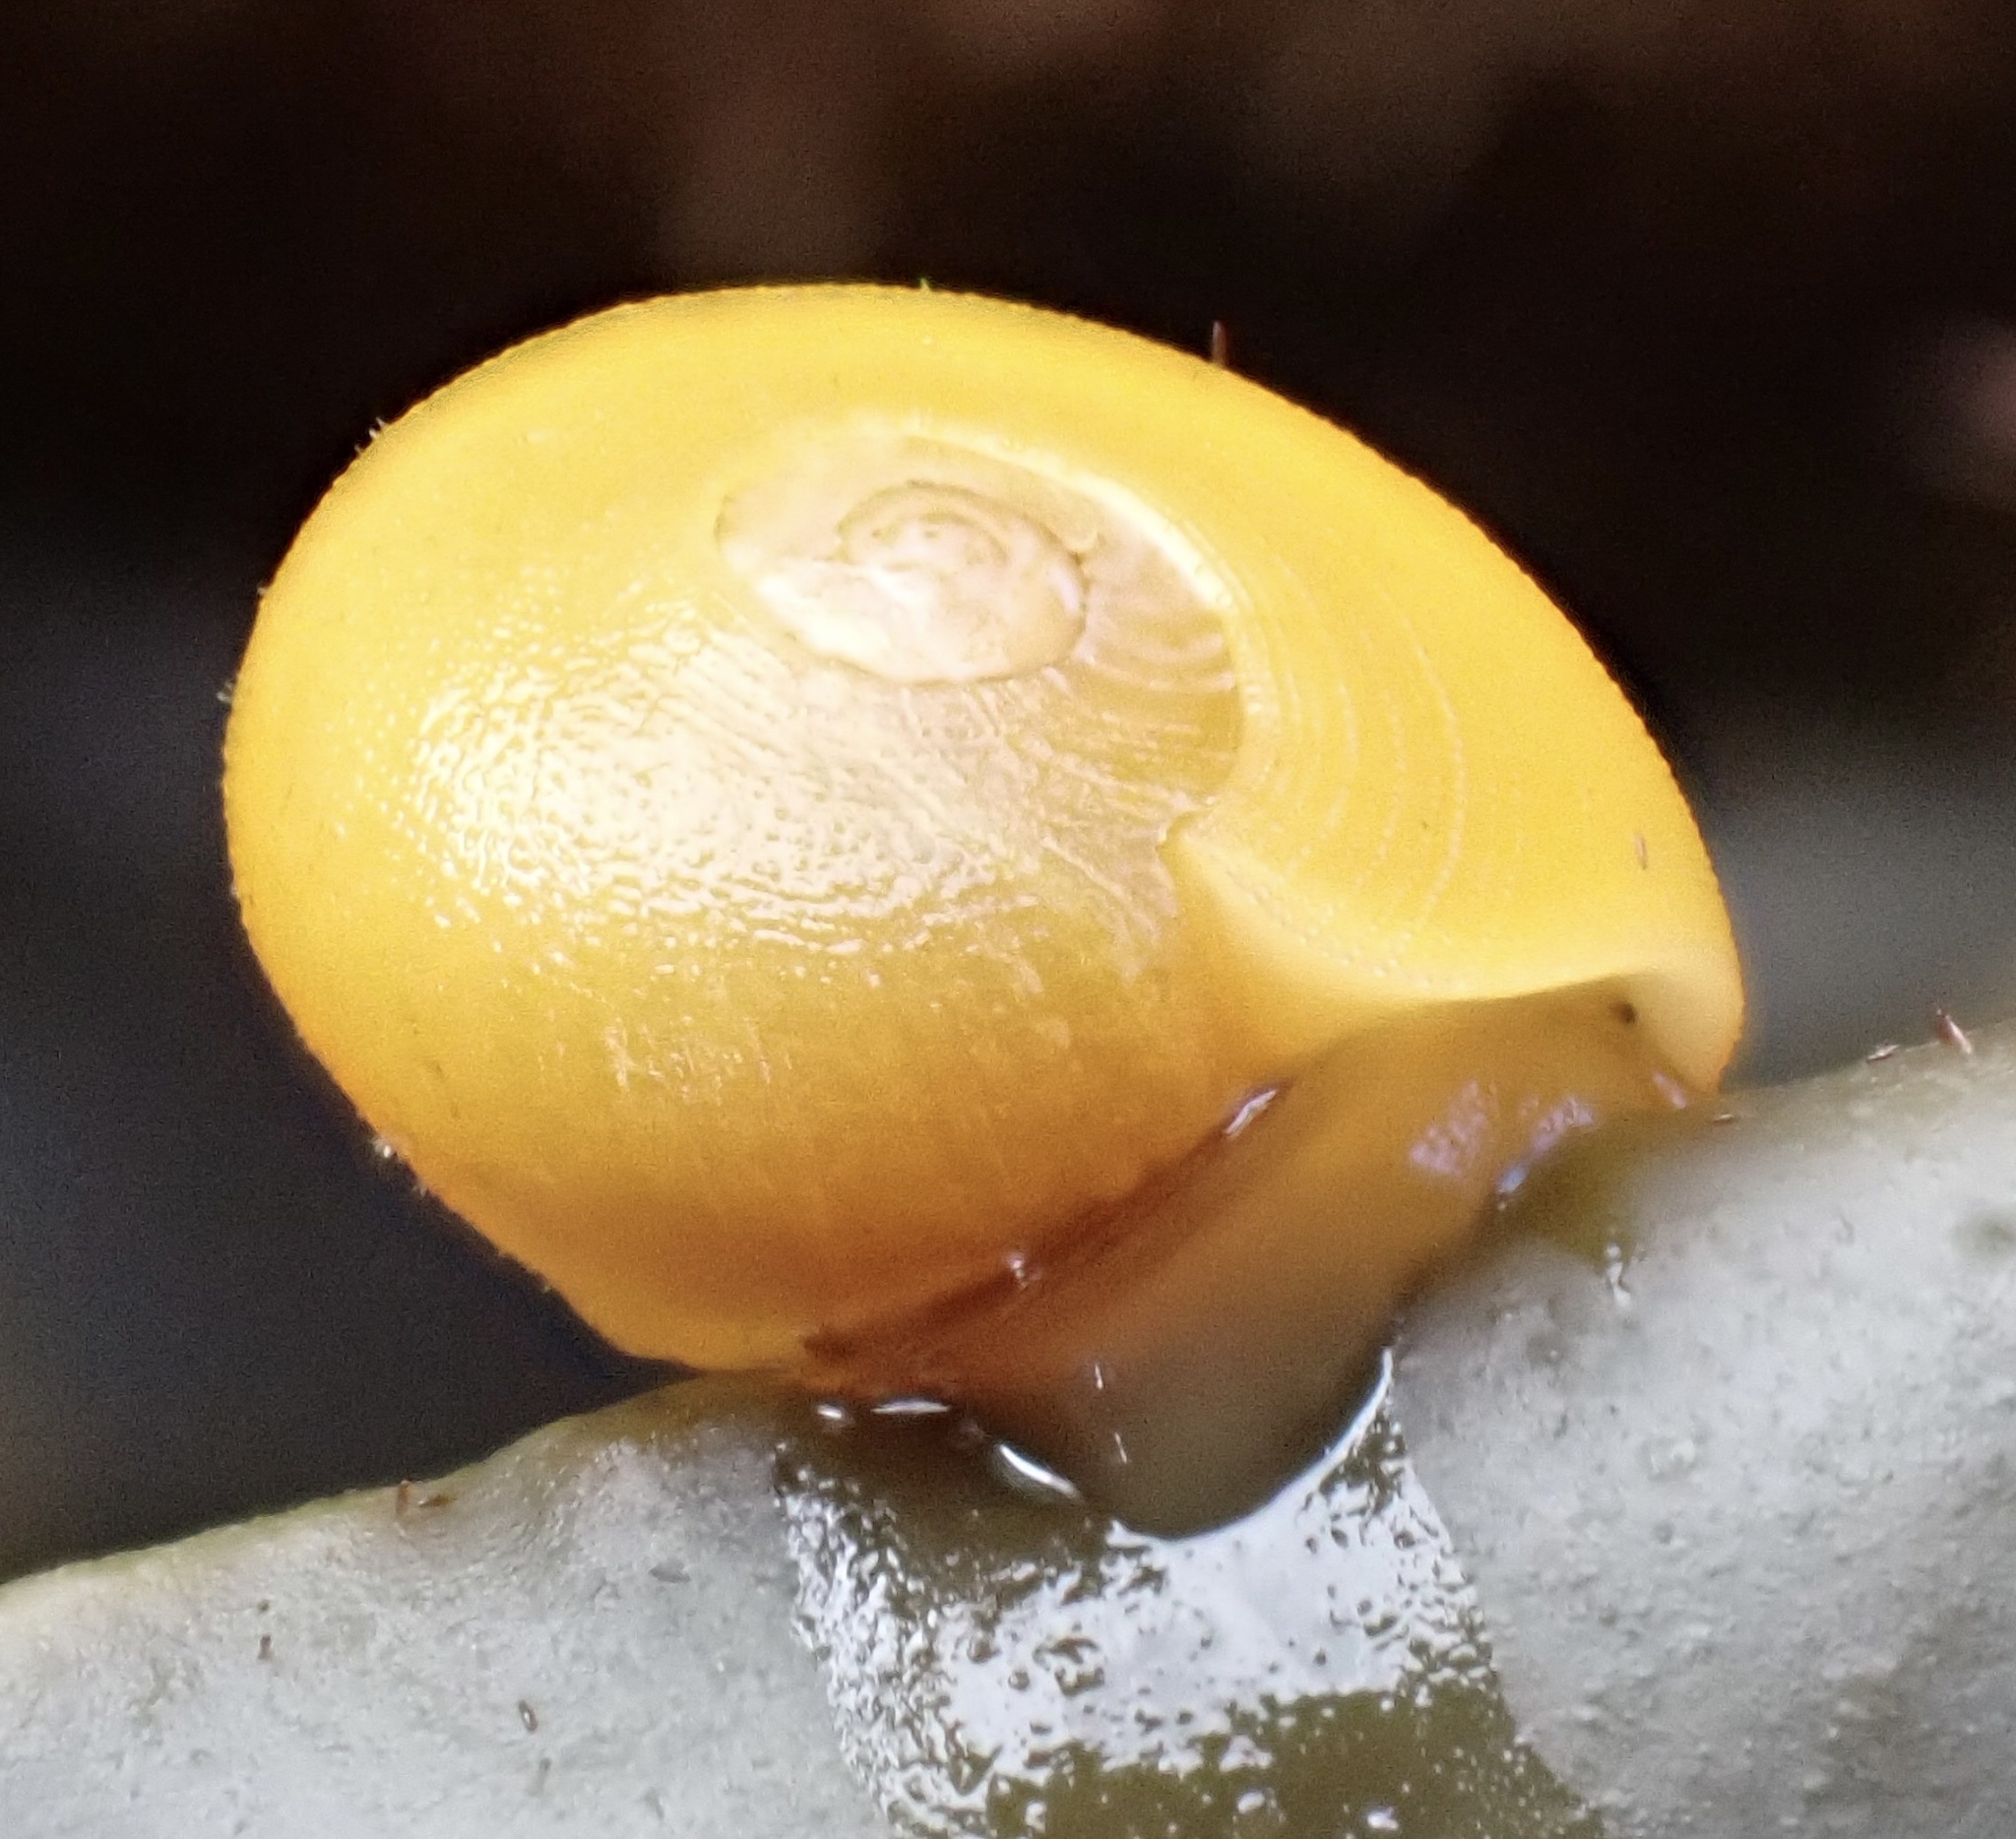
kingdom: Animalia
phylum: Mollusca
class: Gastropoda
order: Littorinimorpha
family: Littorinidae
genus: Littorina
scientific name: Littorina
